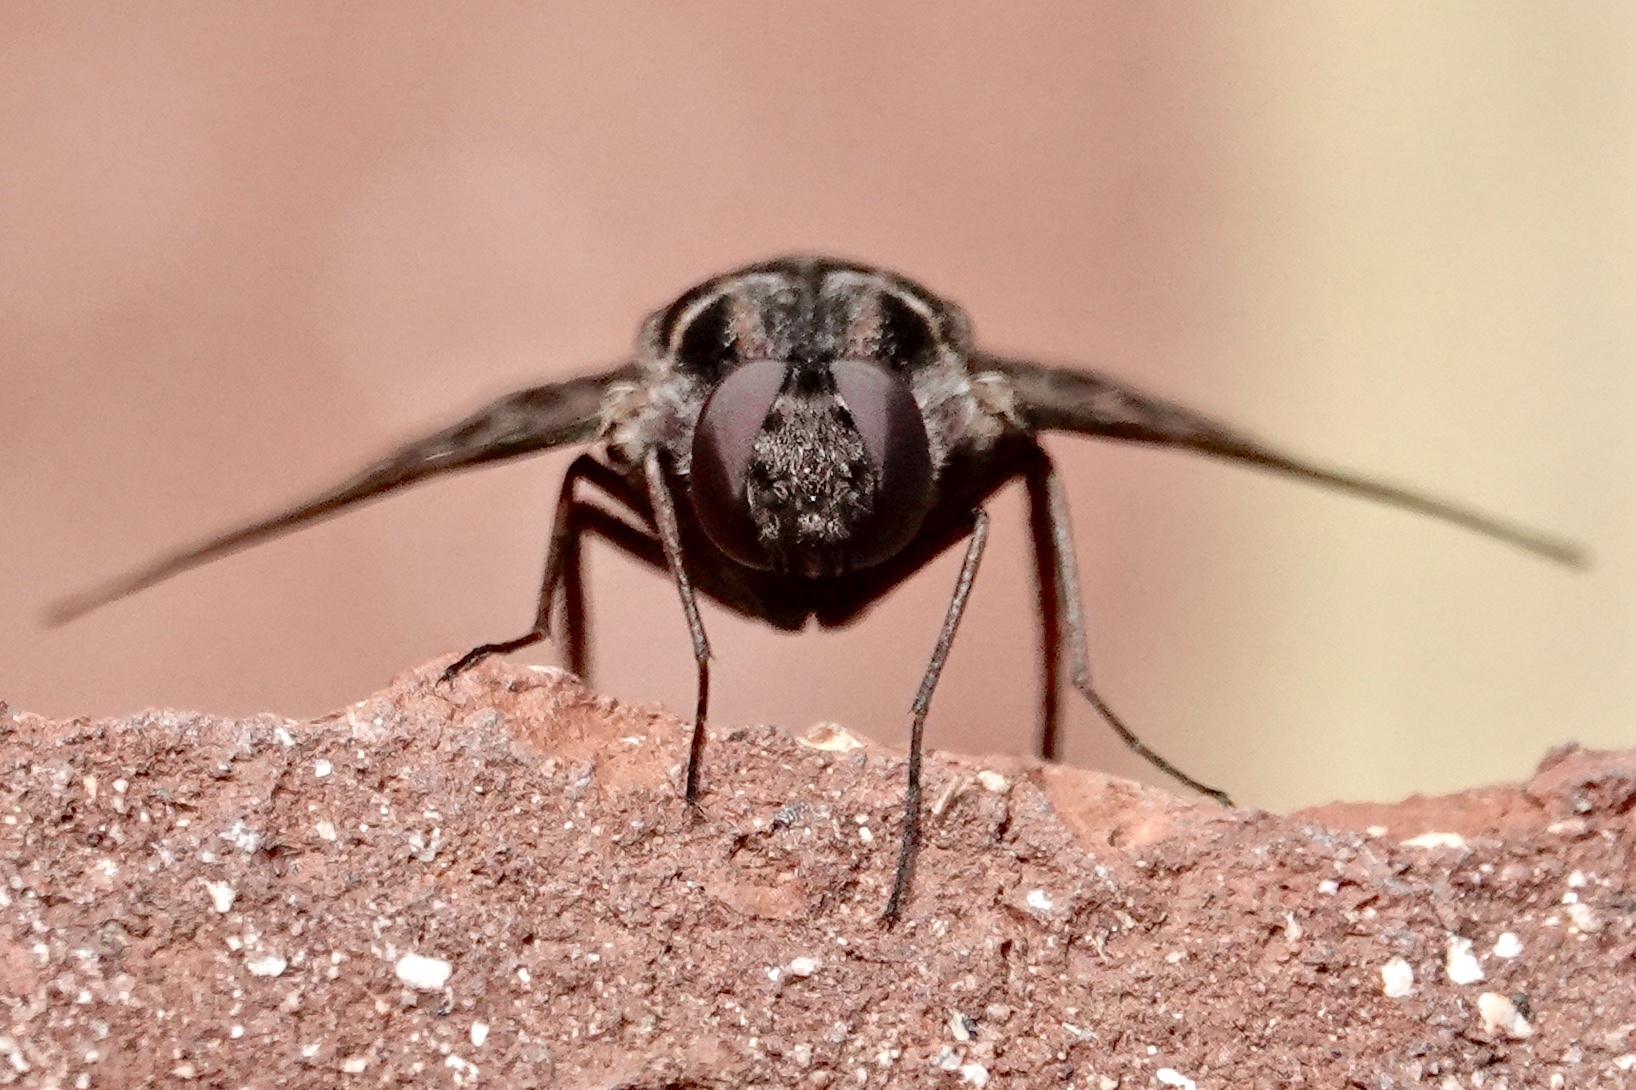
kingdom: Animalia
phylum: Arthropoda
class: Insecta
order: Diptera
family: Bombyliidae
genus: Xenox
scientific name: Xenox tigrinus
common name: Tiger bee fly
